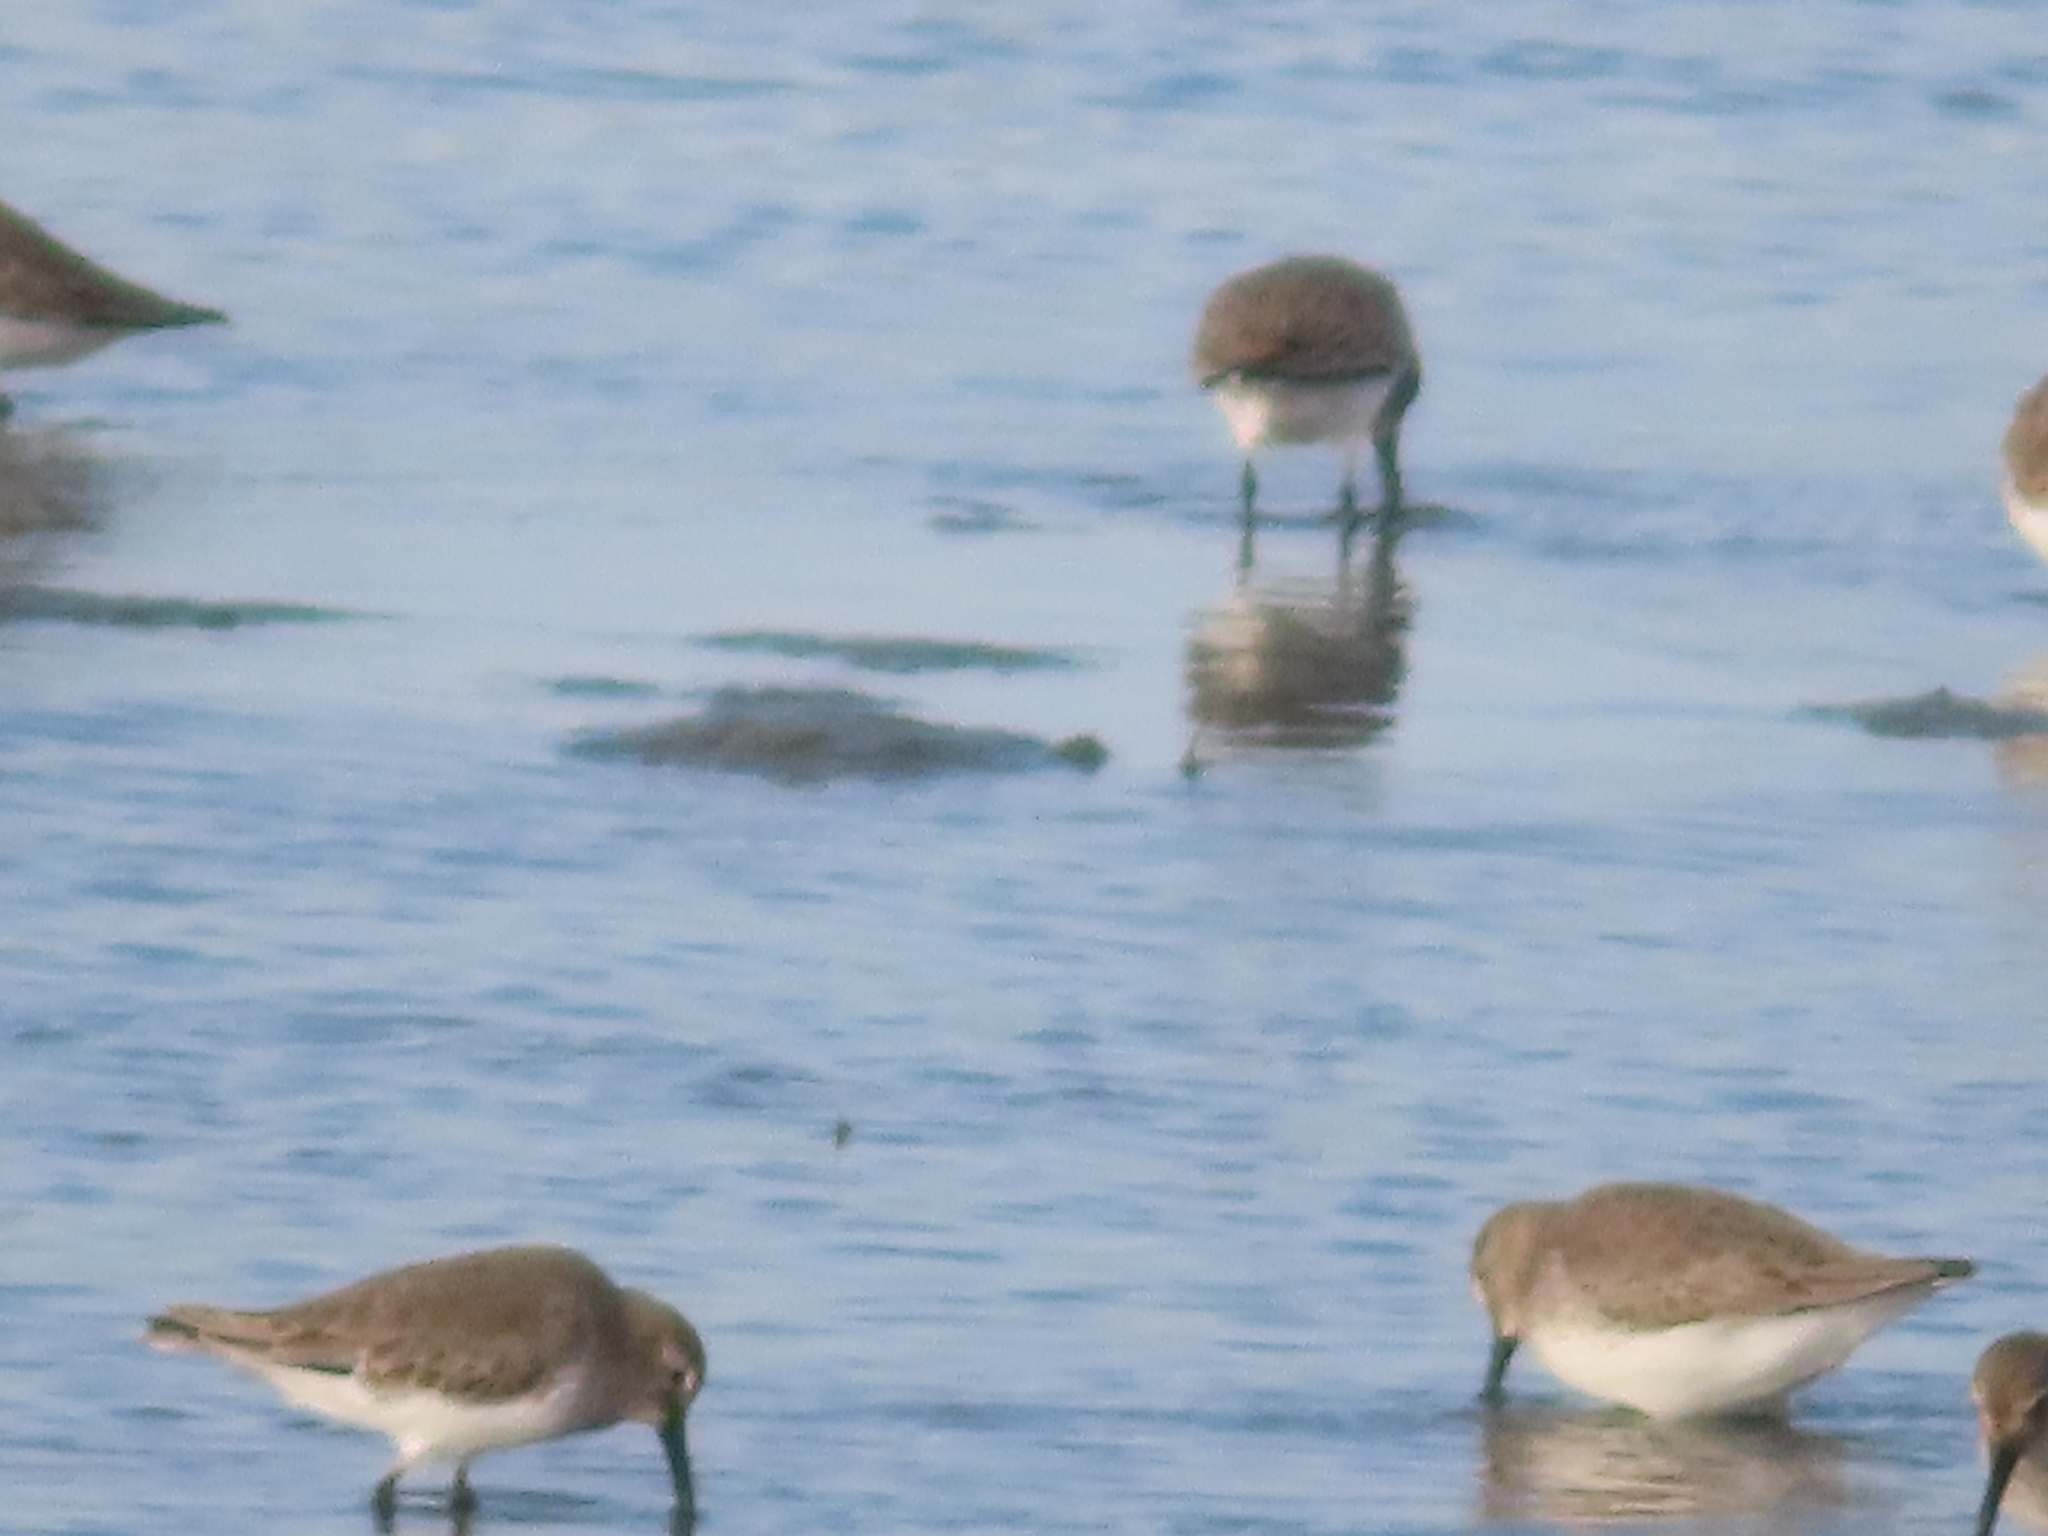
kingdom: Animalia
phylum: Chordata
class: Aves
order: Charadriiformes
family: Scolopacidae
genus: Calidris
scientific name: Calidris alpina
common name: Dunlin
